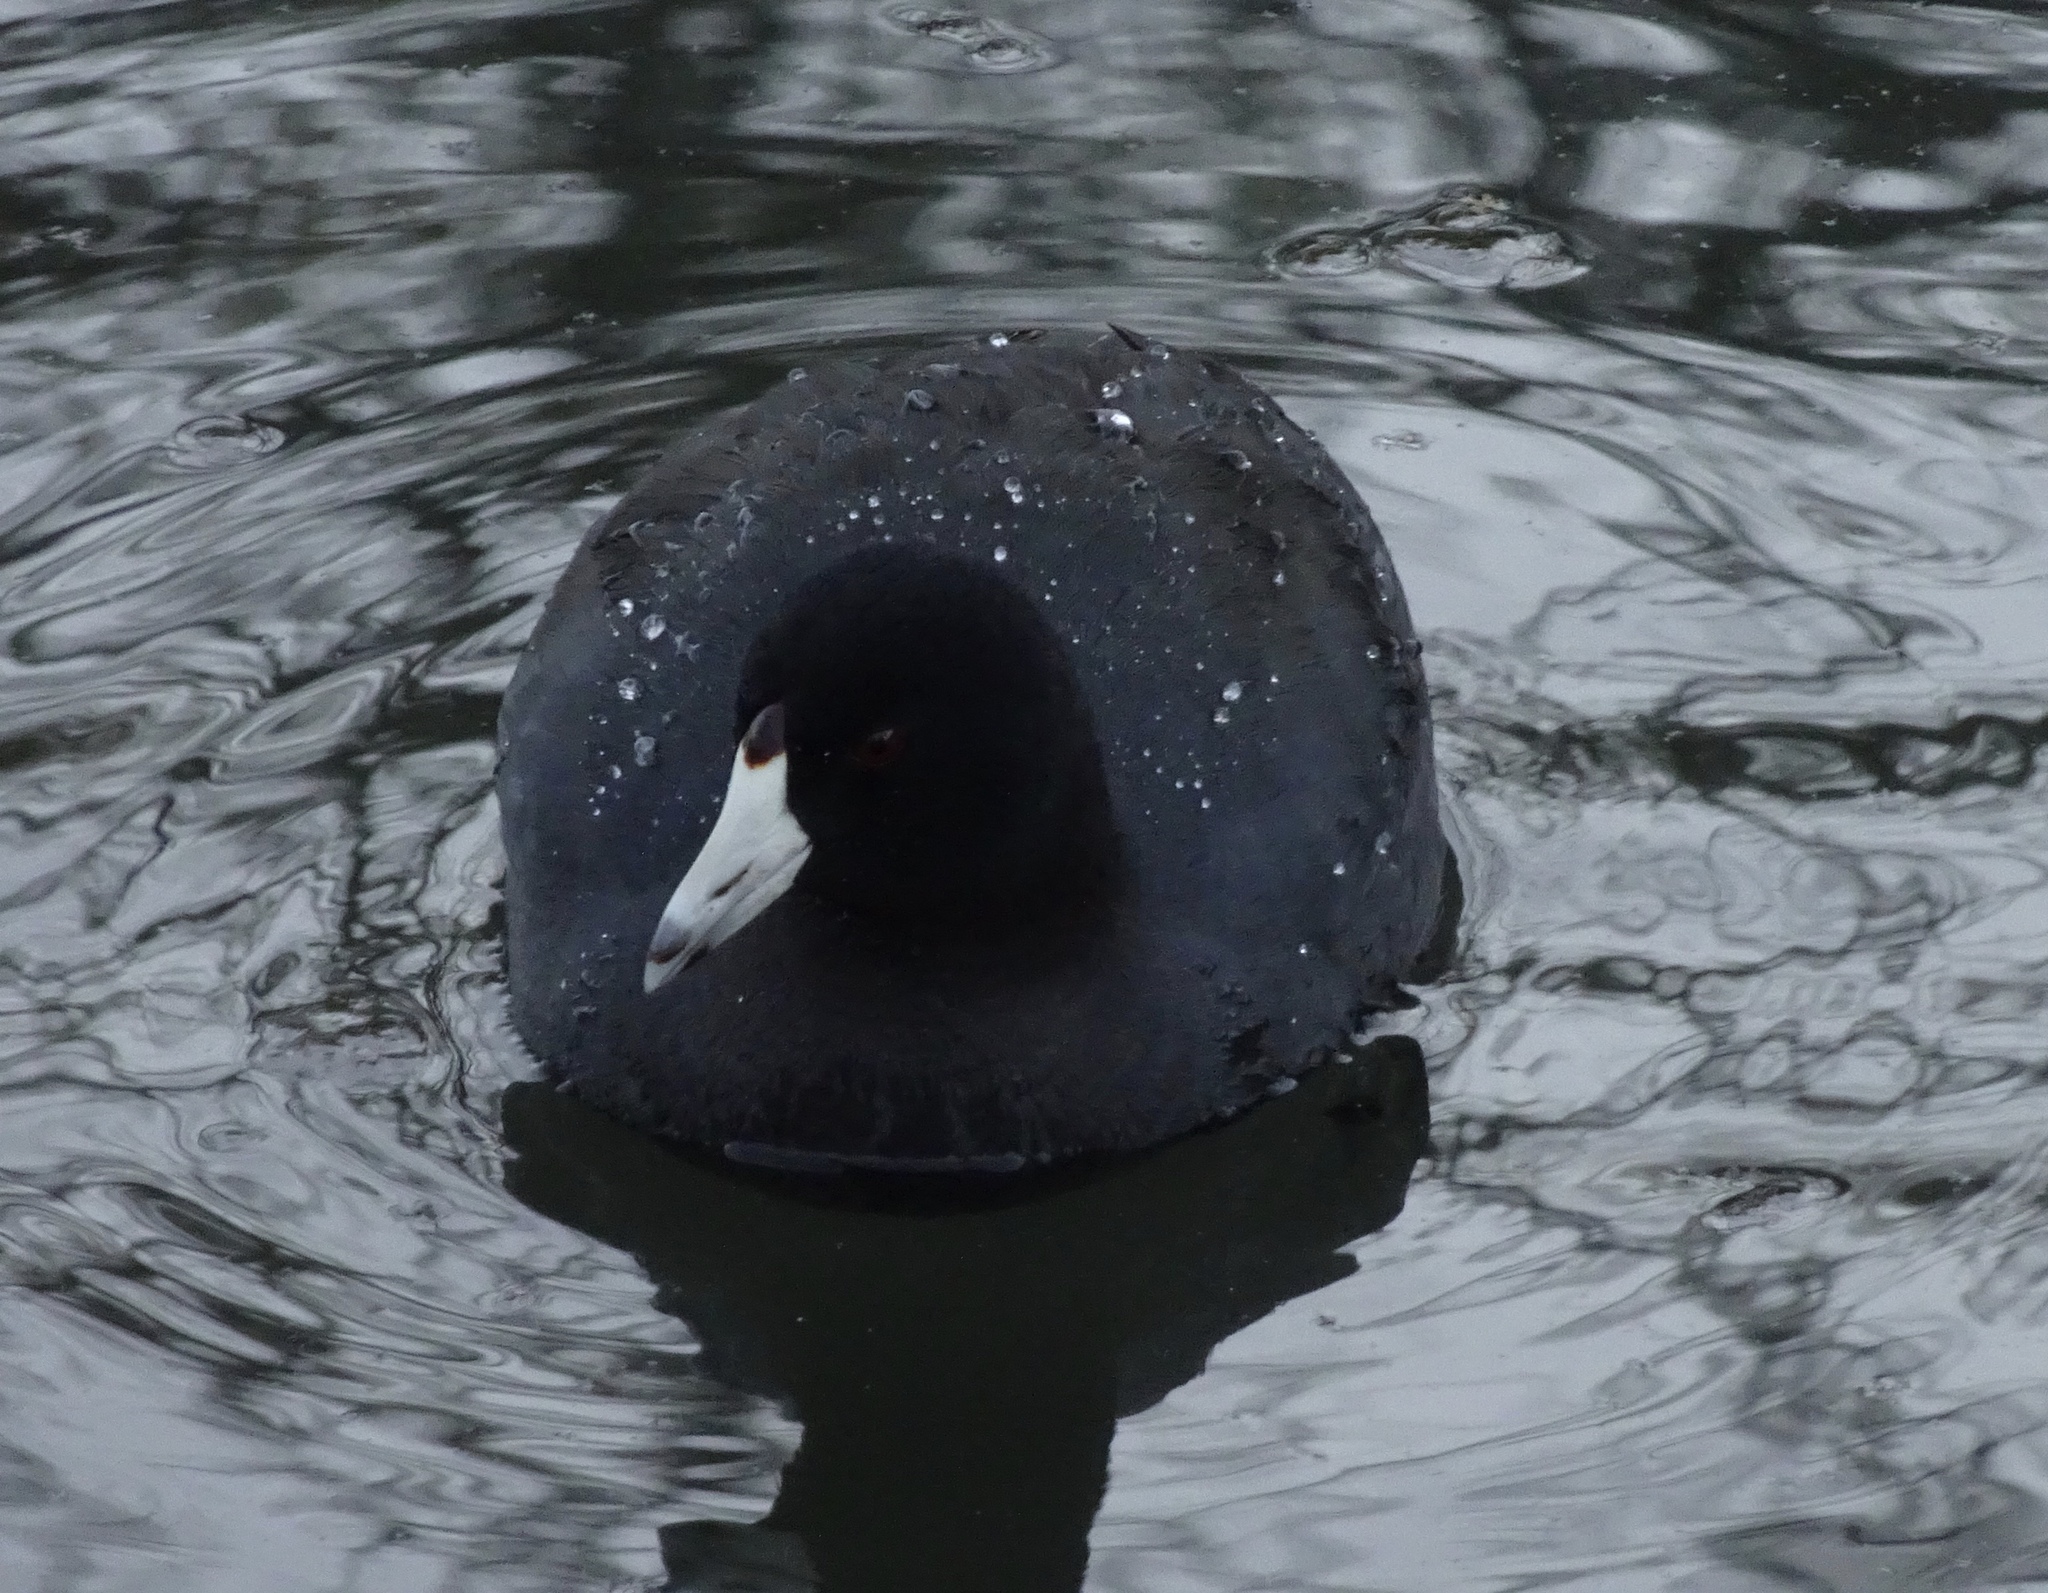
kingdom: Animalia
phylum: Chordata
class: Aves
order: Gruiformes
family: Rallidae
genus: Fulica
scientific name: Fulica americana
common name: American coot
